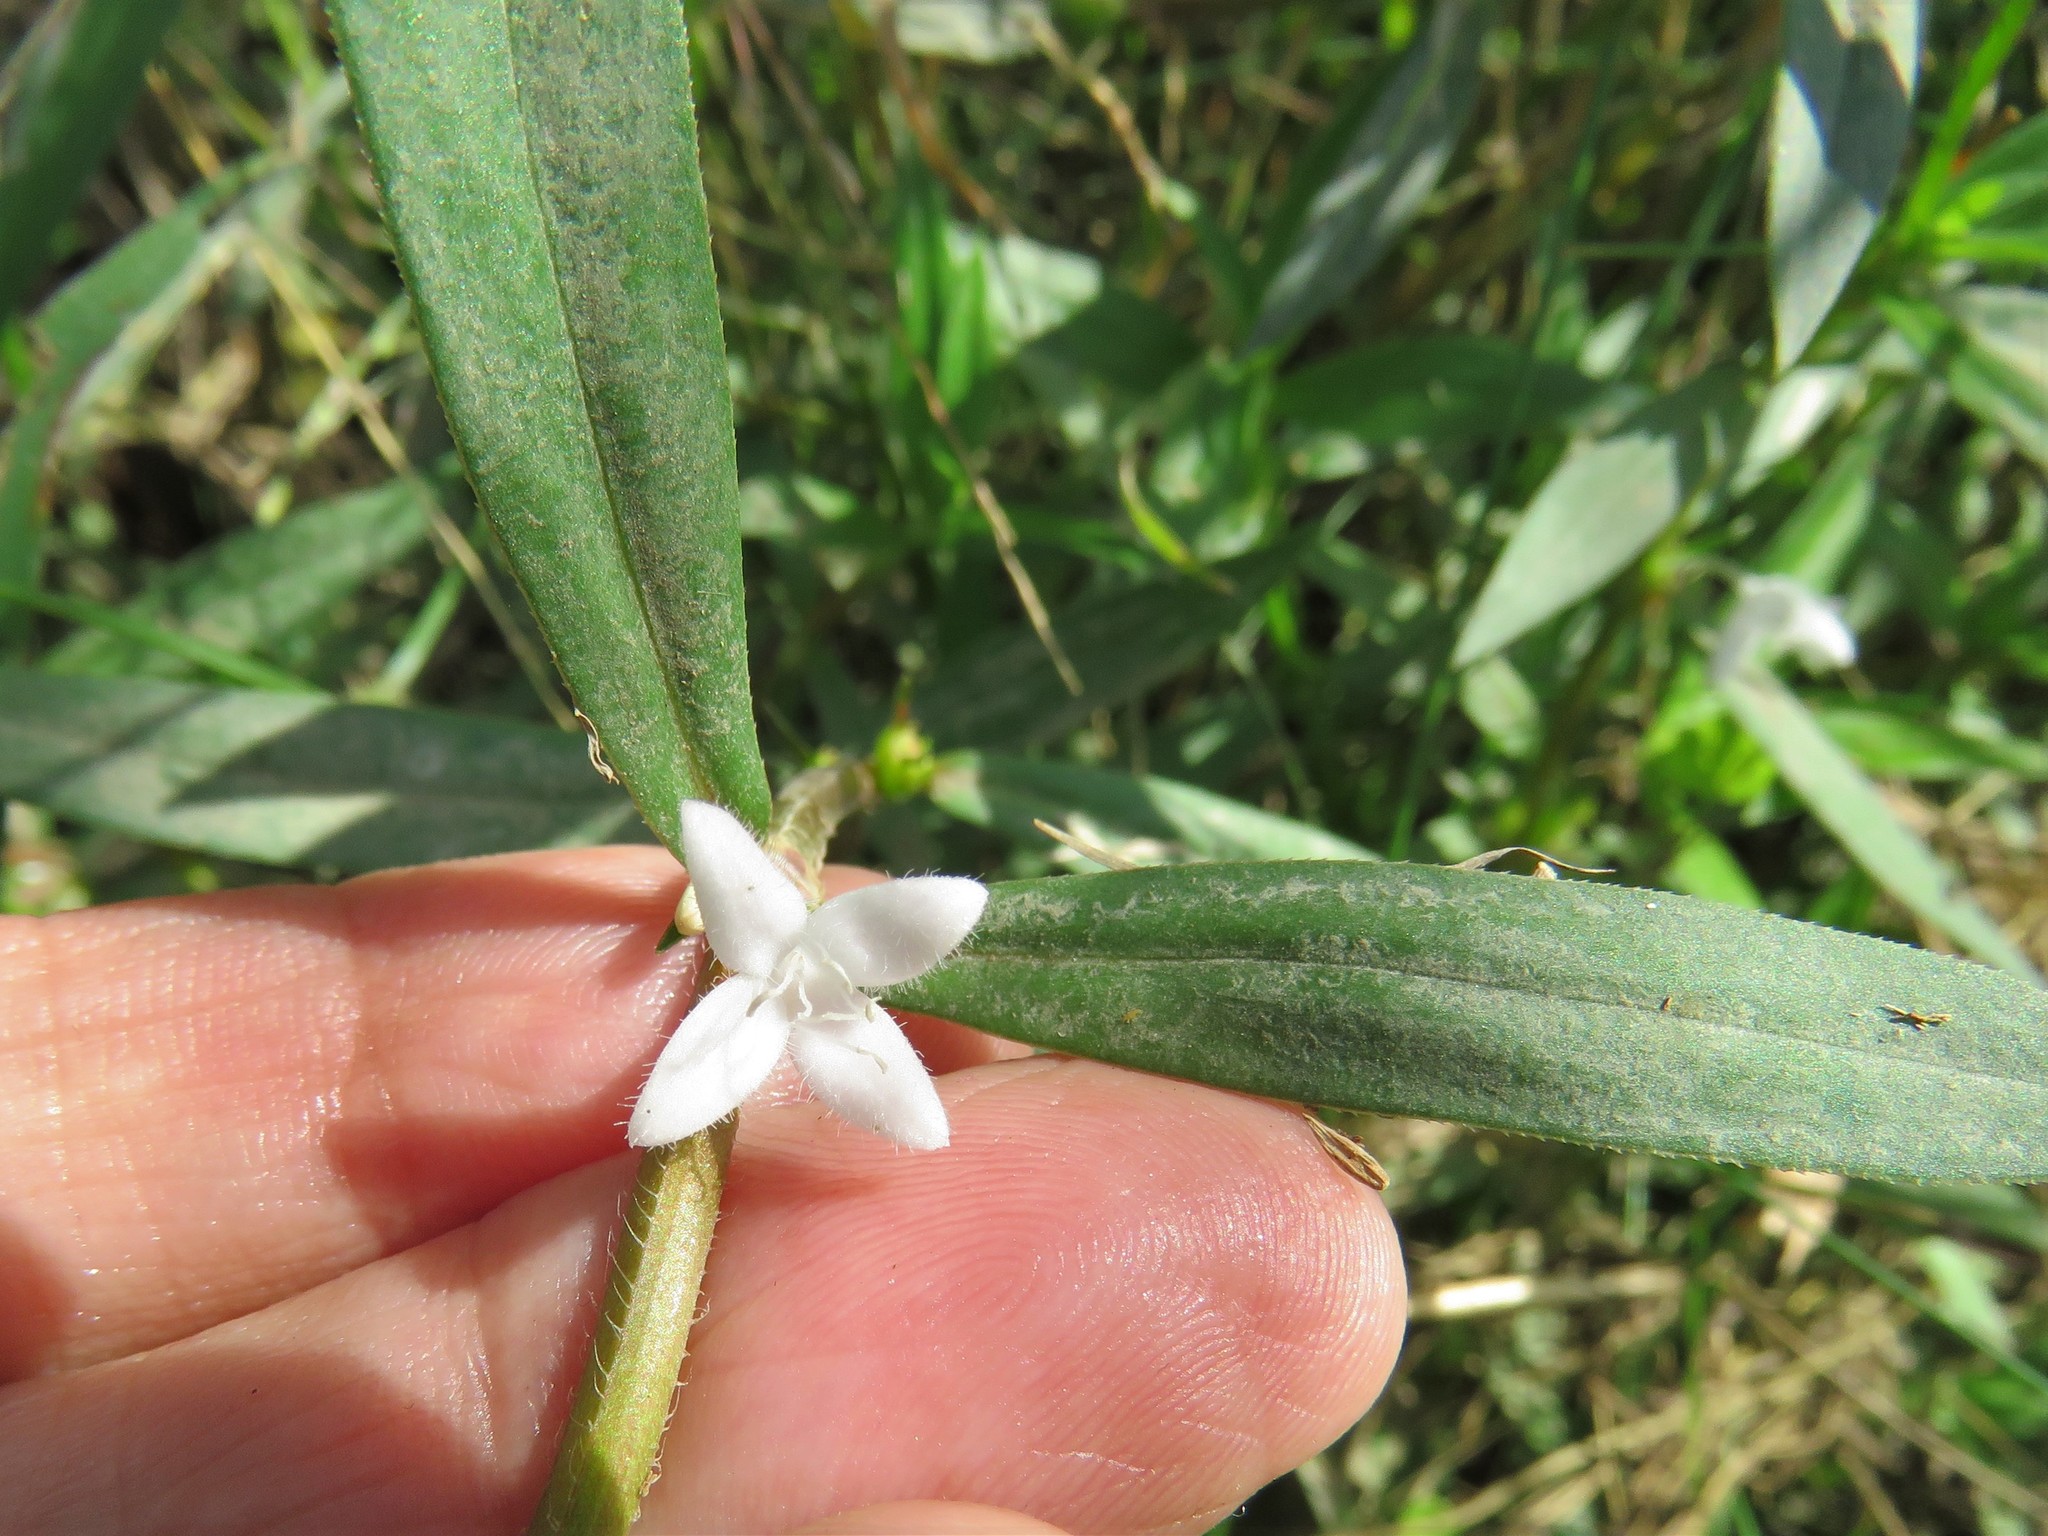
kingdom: Plantae
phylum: Tracheophyta
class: Magnoliopsida
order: Gentianales
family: Rubiaceae
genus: Diodia
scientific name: Diodia virginiana
